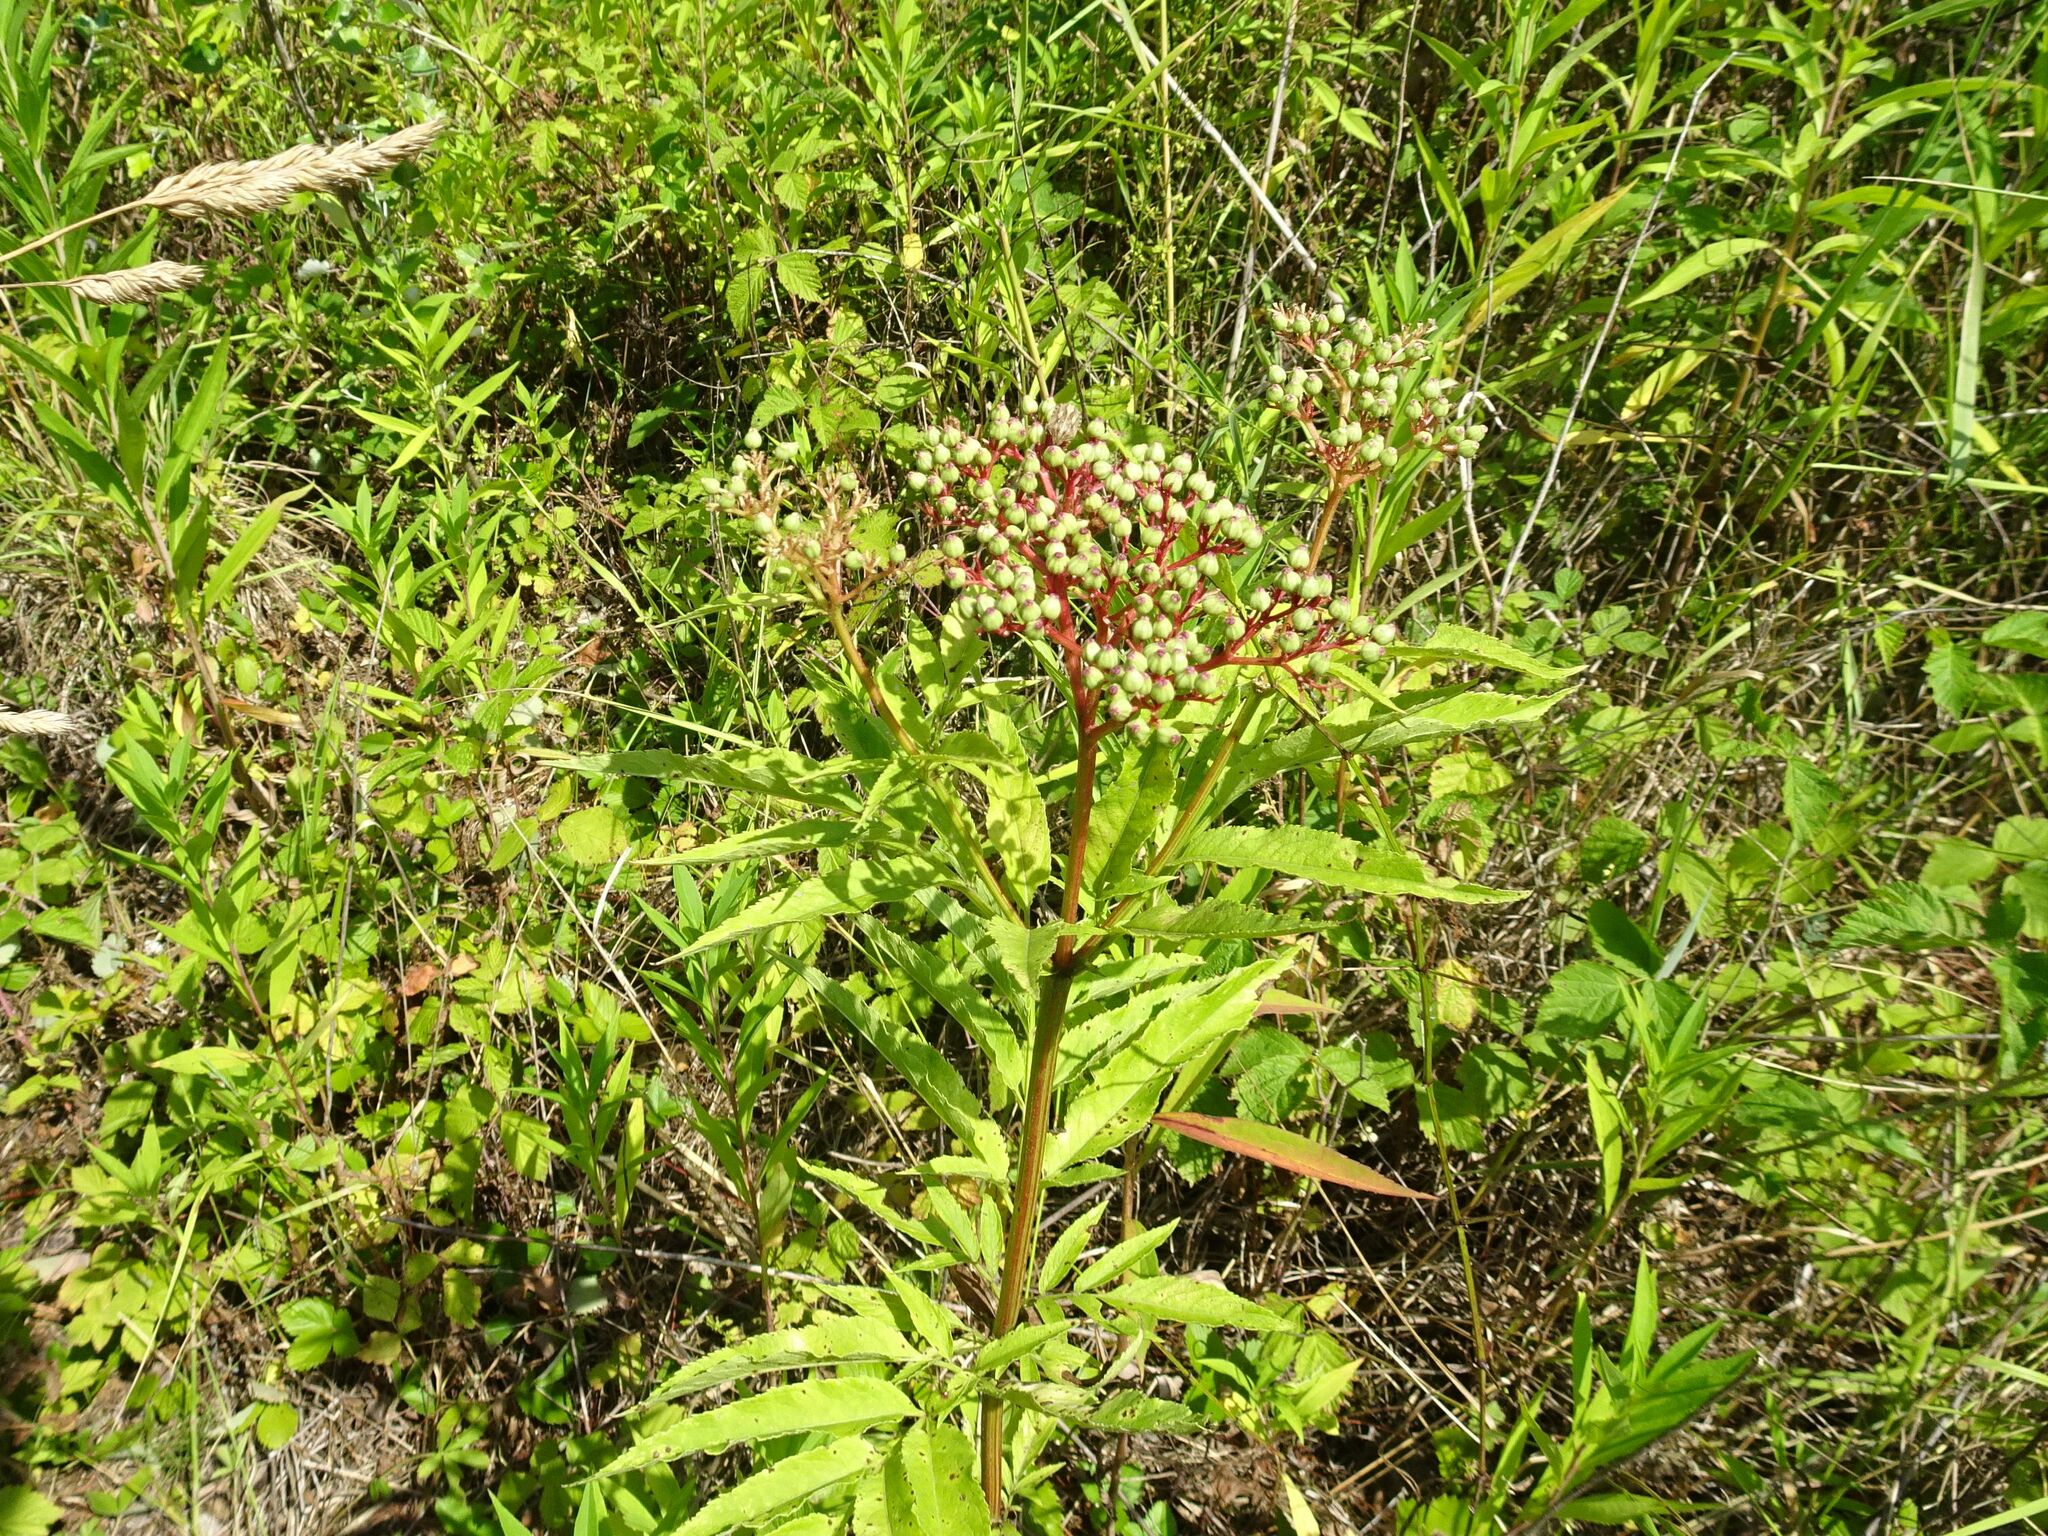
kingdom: Plantae
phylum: Tracheophyta
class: Magnoliopsida
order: Dipsacales
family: Viburnaceae
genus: Sambucus
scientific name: Sambucus ebulus
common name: Dwarf elder
